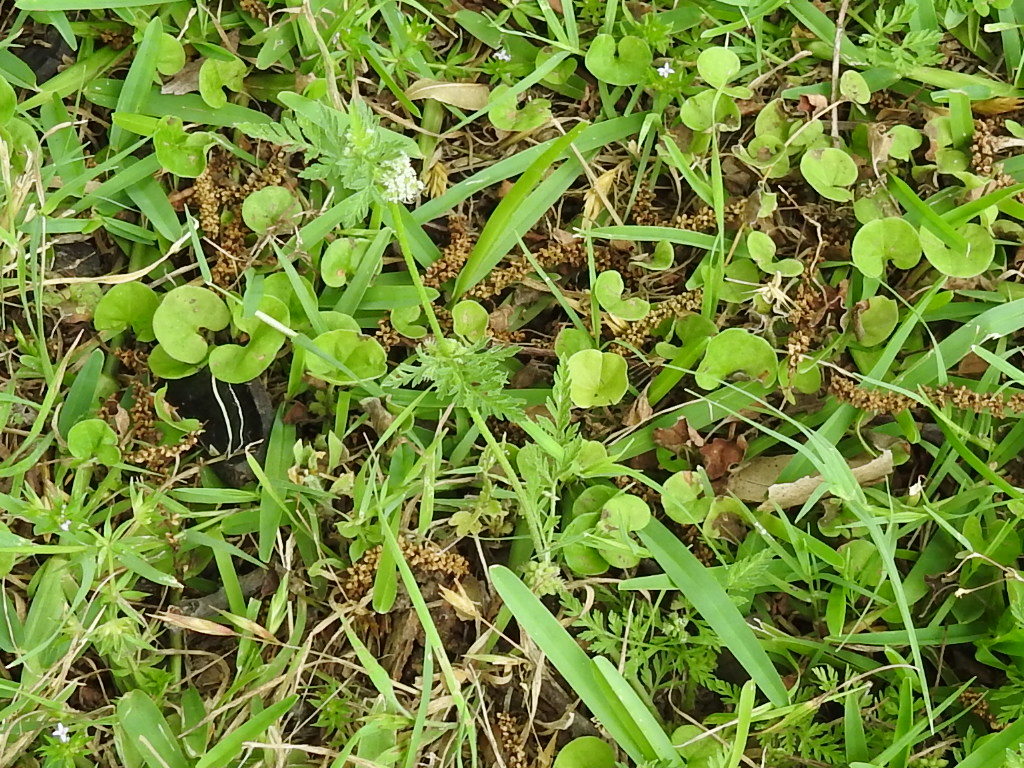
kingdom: Plantae
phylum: Tracheophyta
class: Magnoliopsida
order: Apiales
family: Apiaceae
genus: Torilis
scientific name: Torilis nodosa
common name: Knotted hedge-parsley
